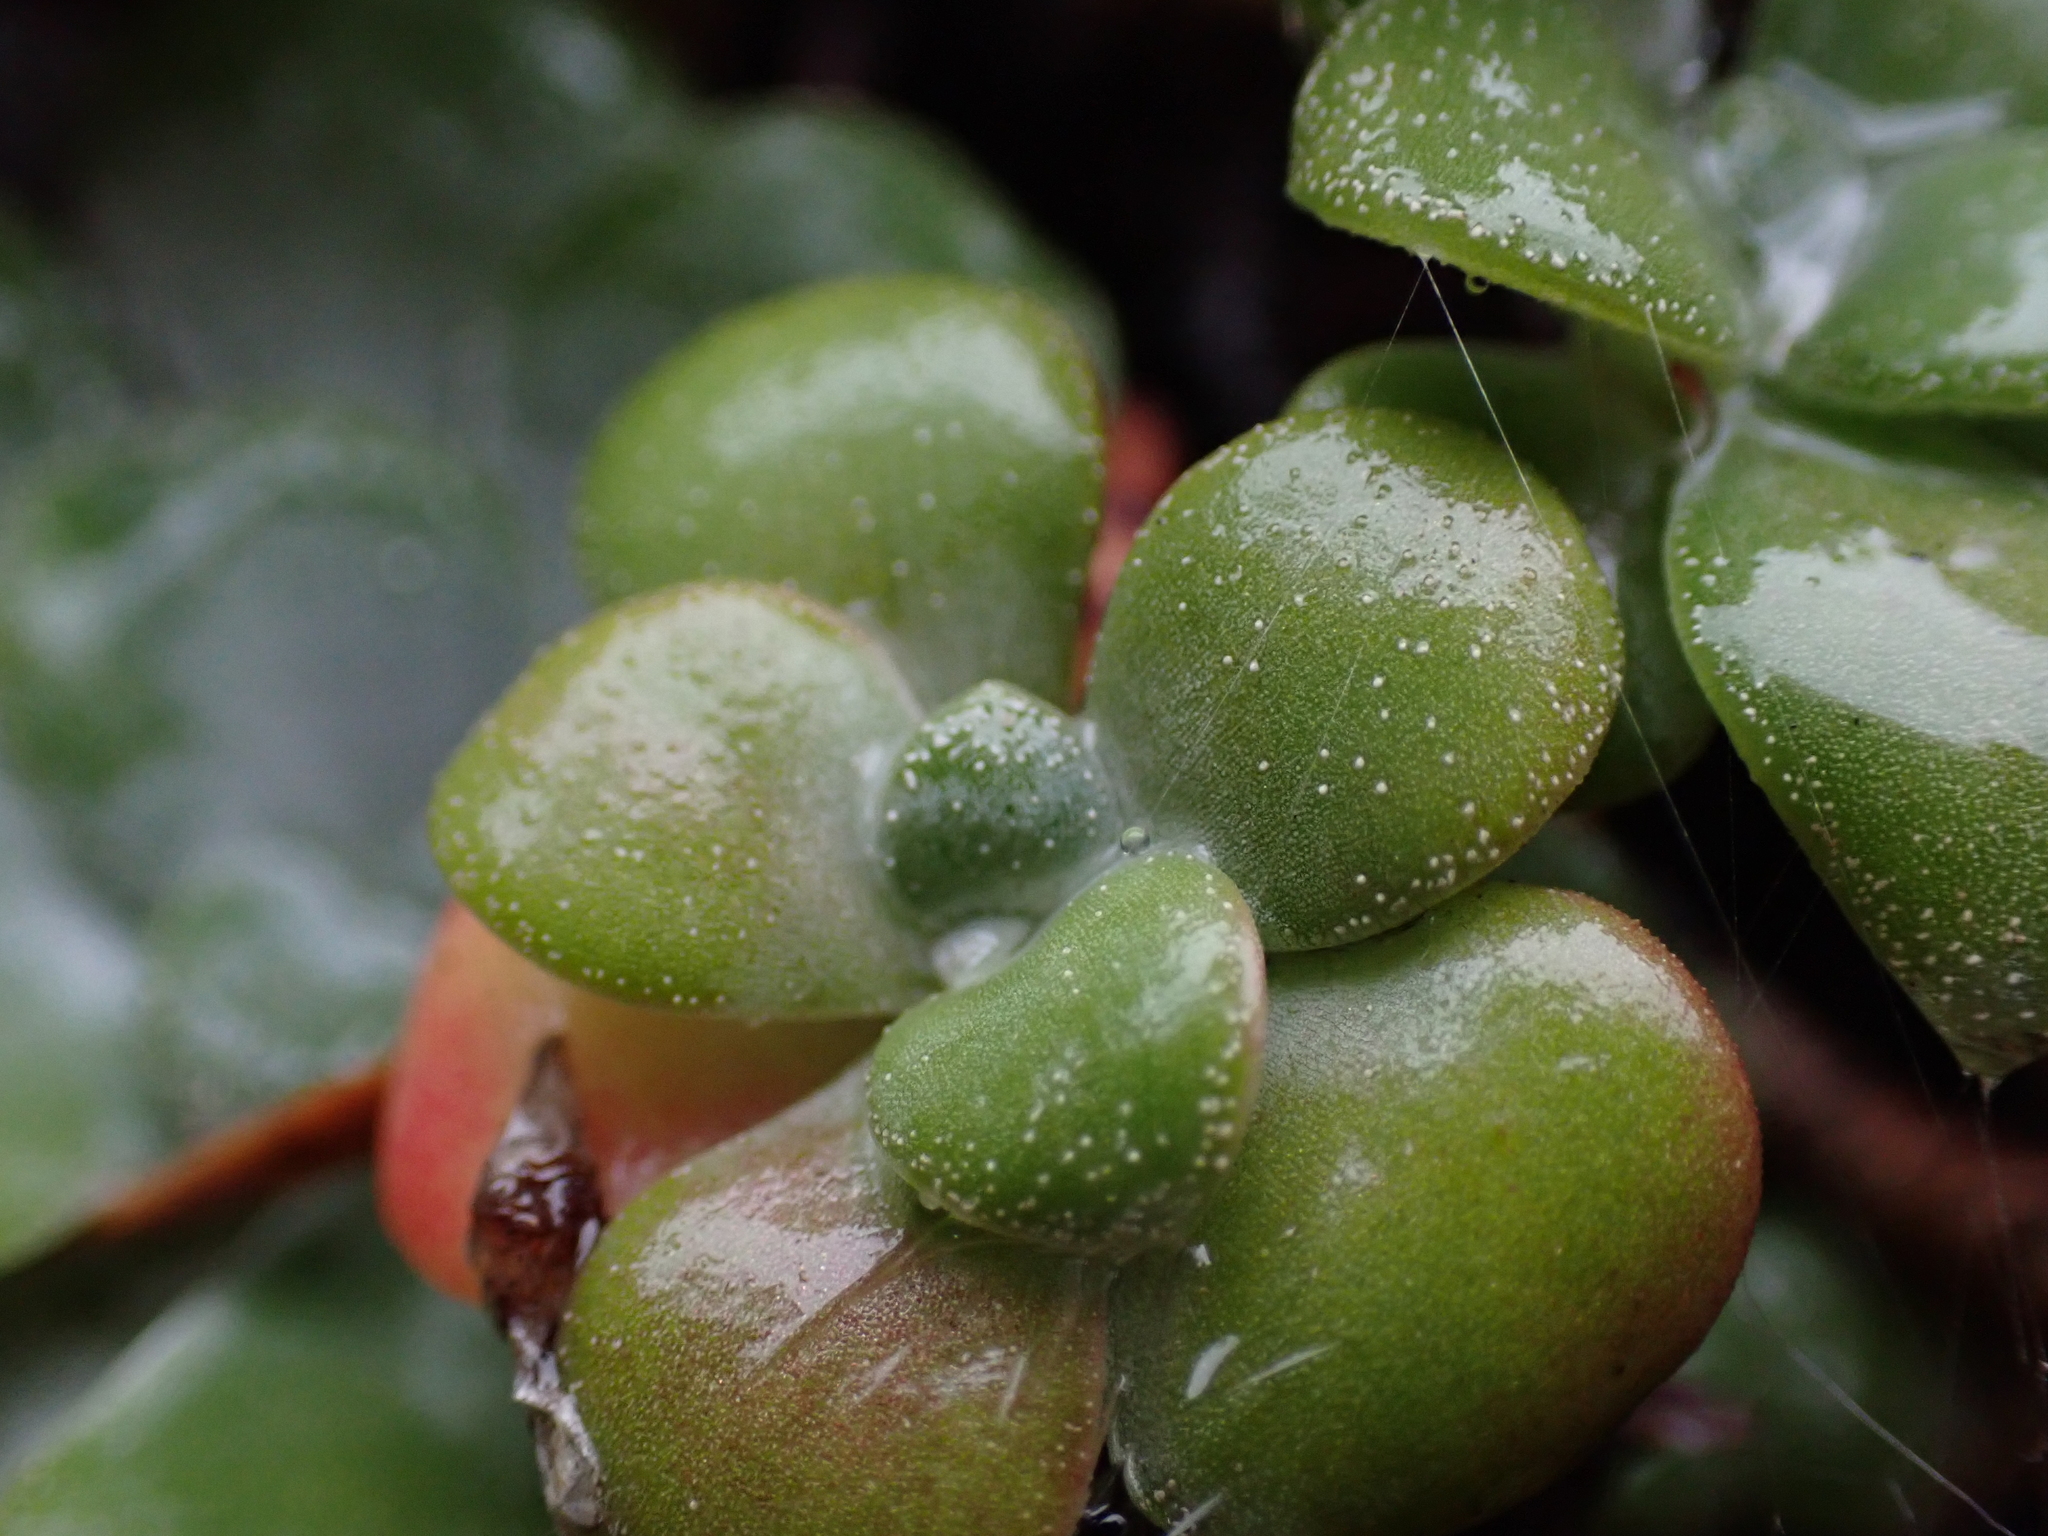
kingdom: Plantae
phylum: Tracheophyta
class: Magnoliopsida
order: Saxifragales
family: Crassulaceae
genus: Sedum
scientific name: Sedum spathulifolium
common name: Colorado stonecrop
